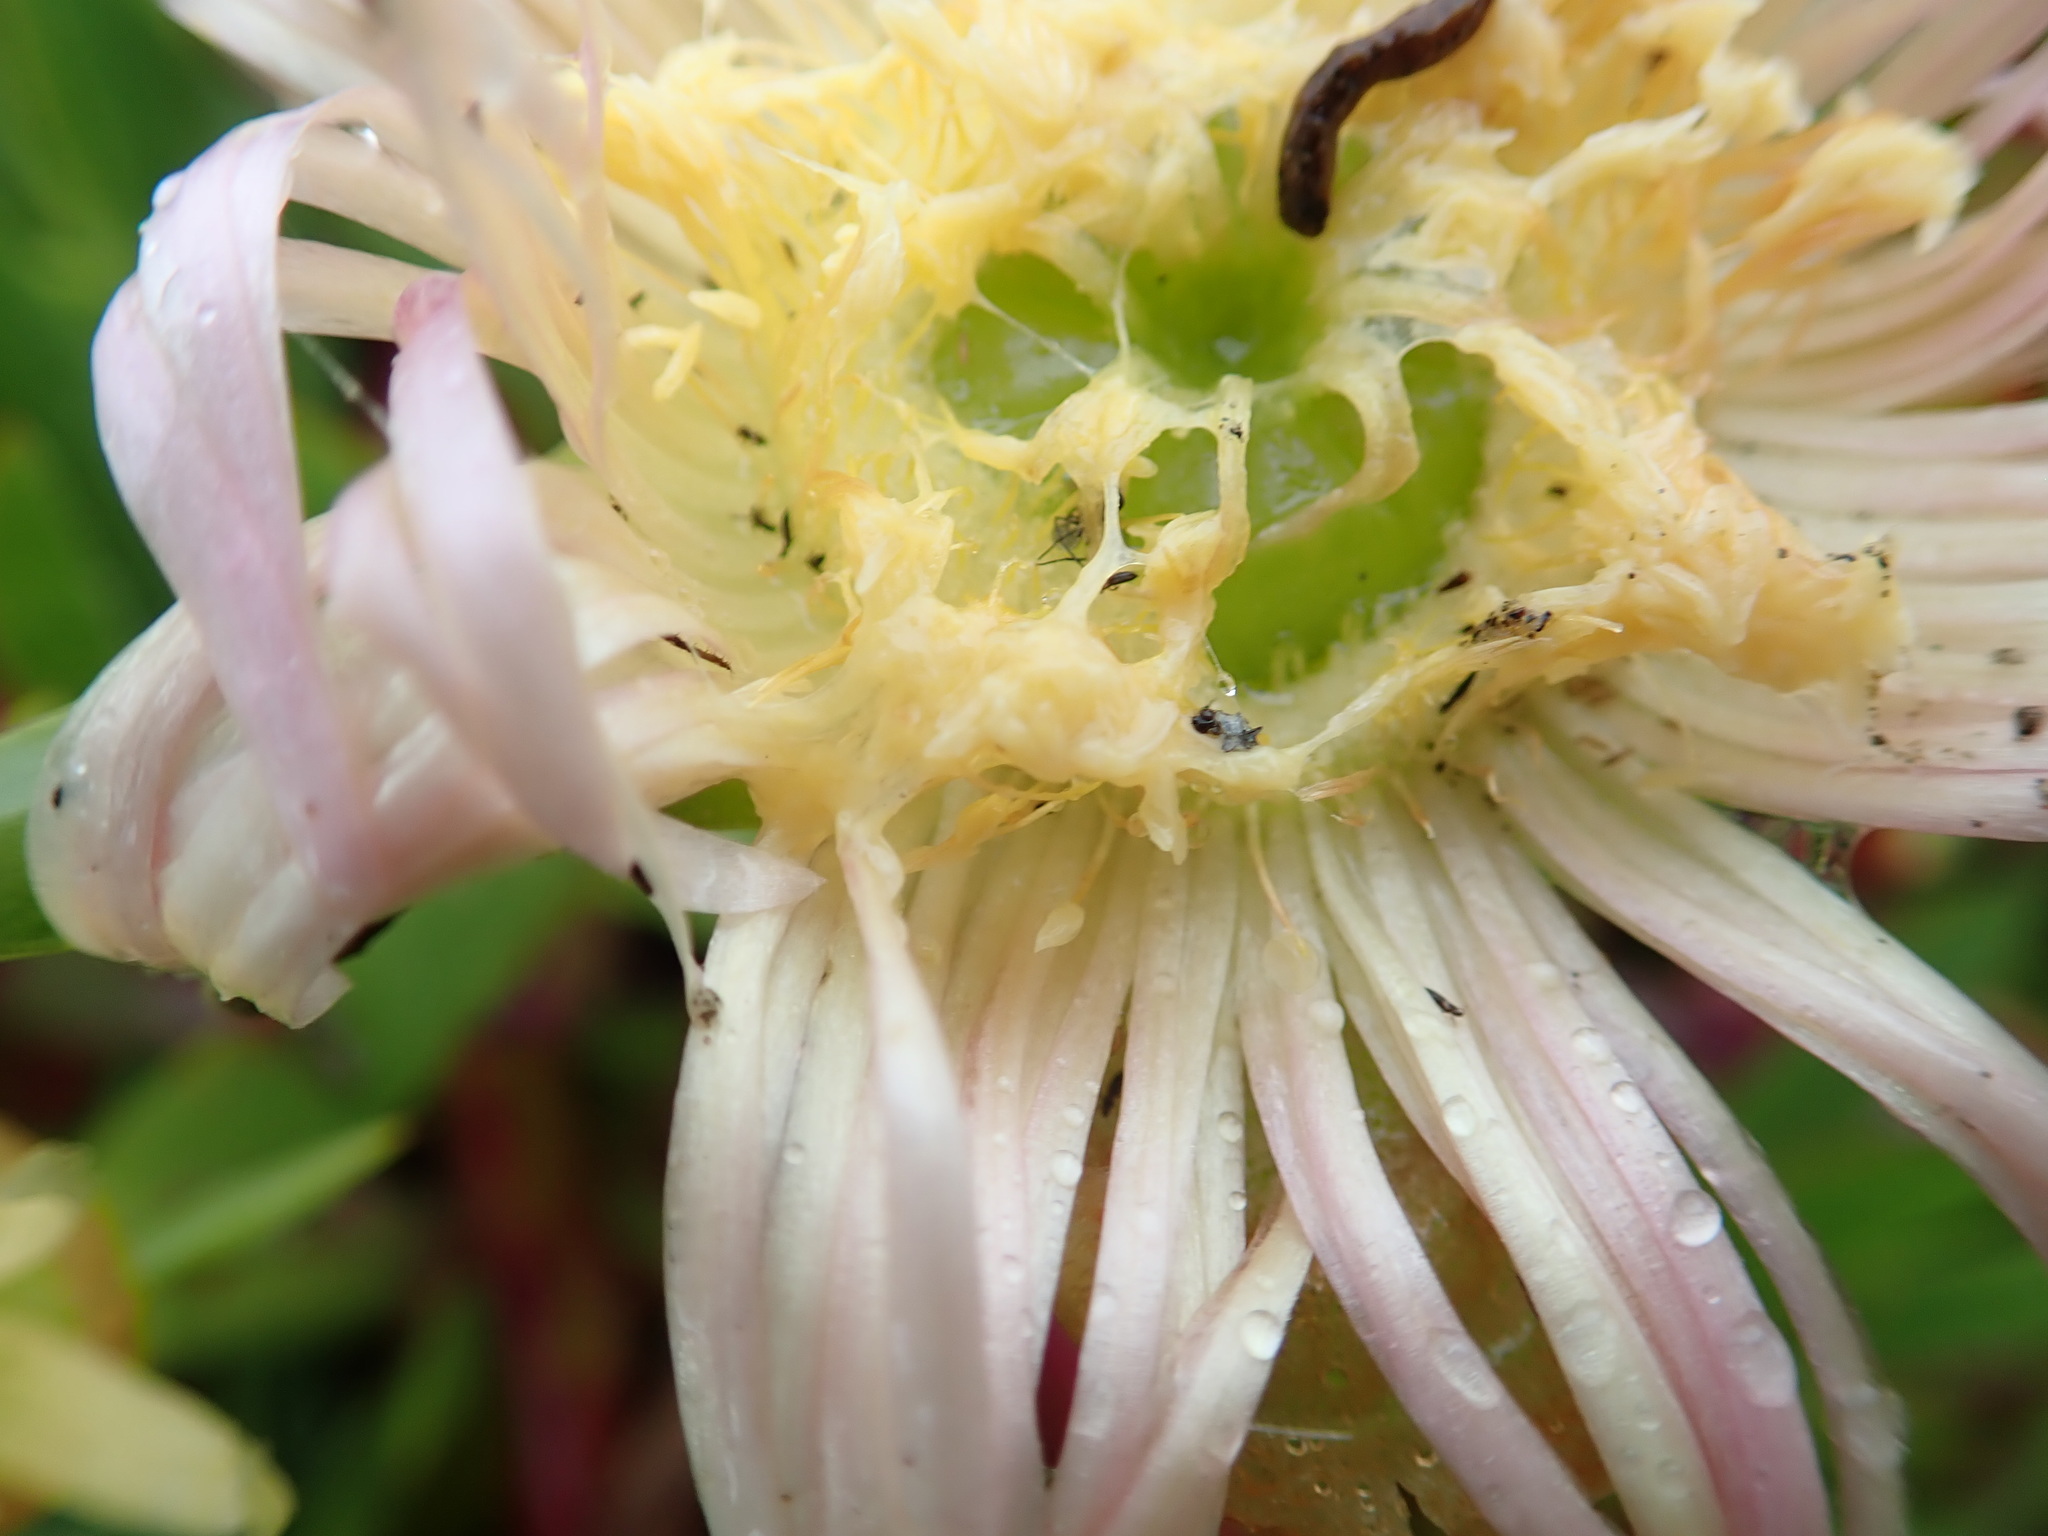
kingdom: Plantae
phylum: Tracheophyta
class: Magnoliopsida
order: Caryophyllales
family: Aizoaceae
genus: Carpobrotus
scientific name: Carpobrotus edulis
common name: Hottentot-fig
